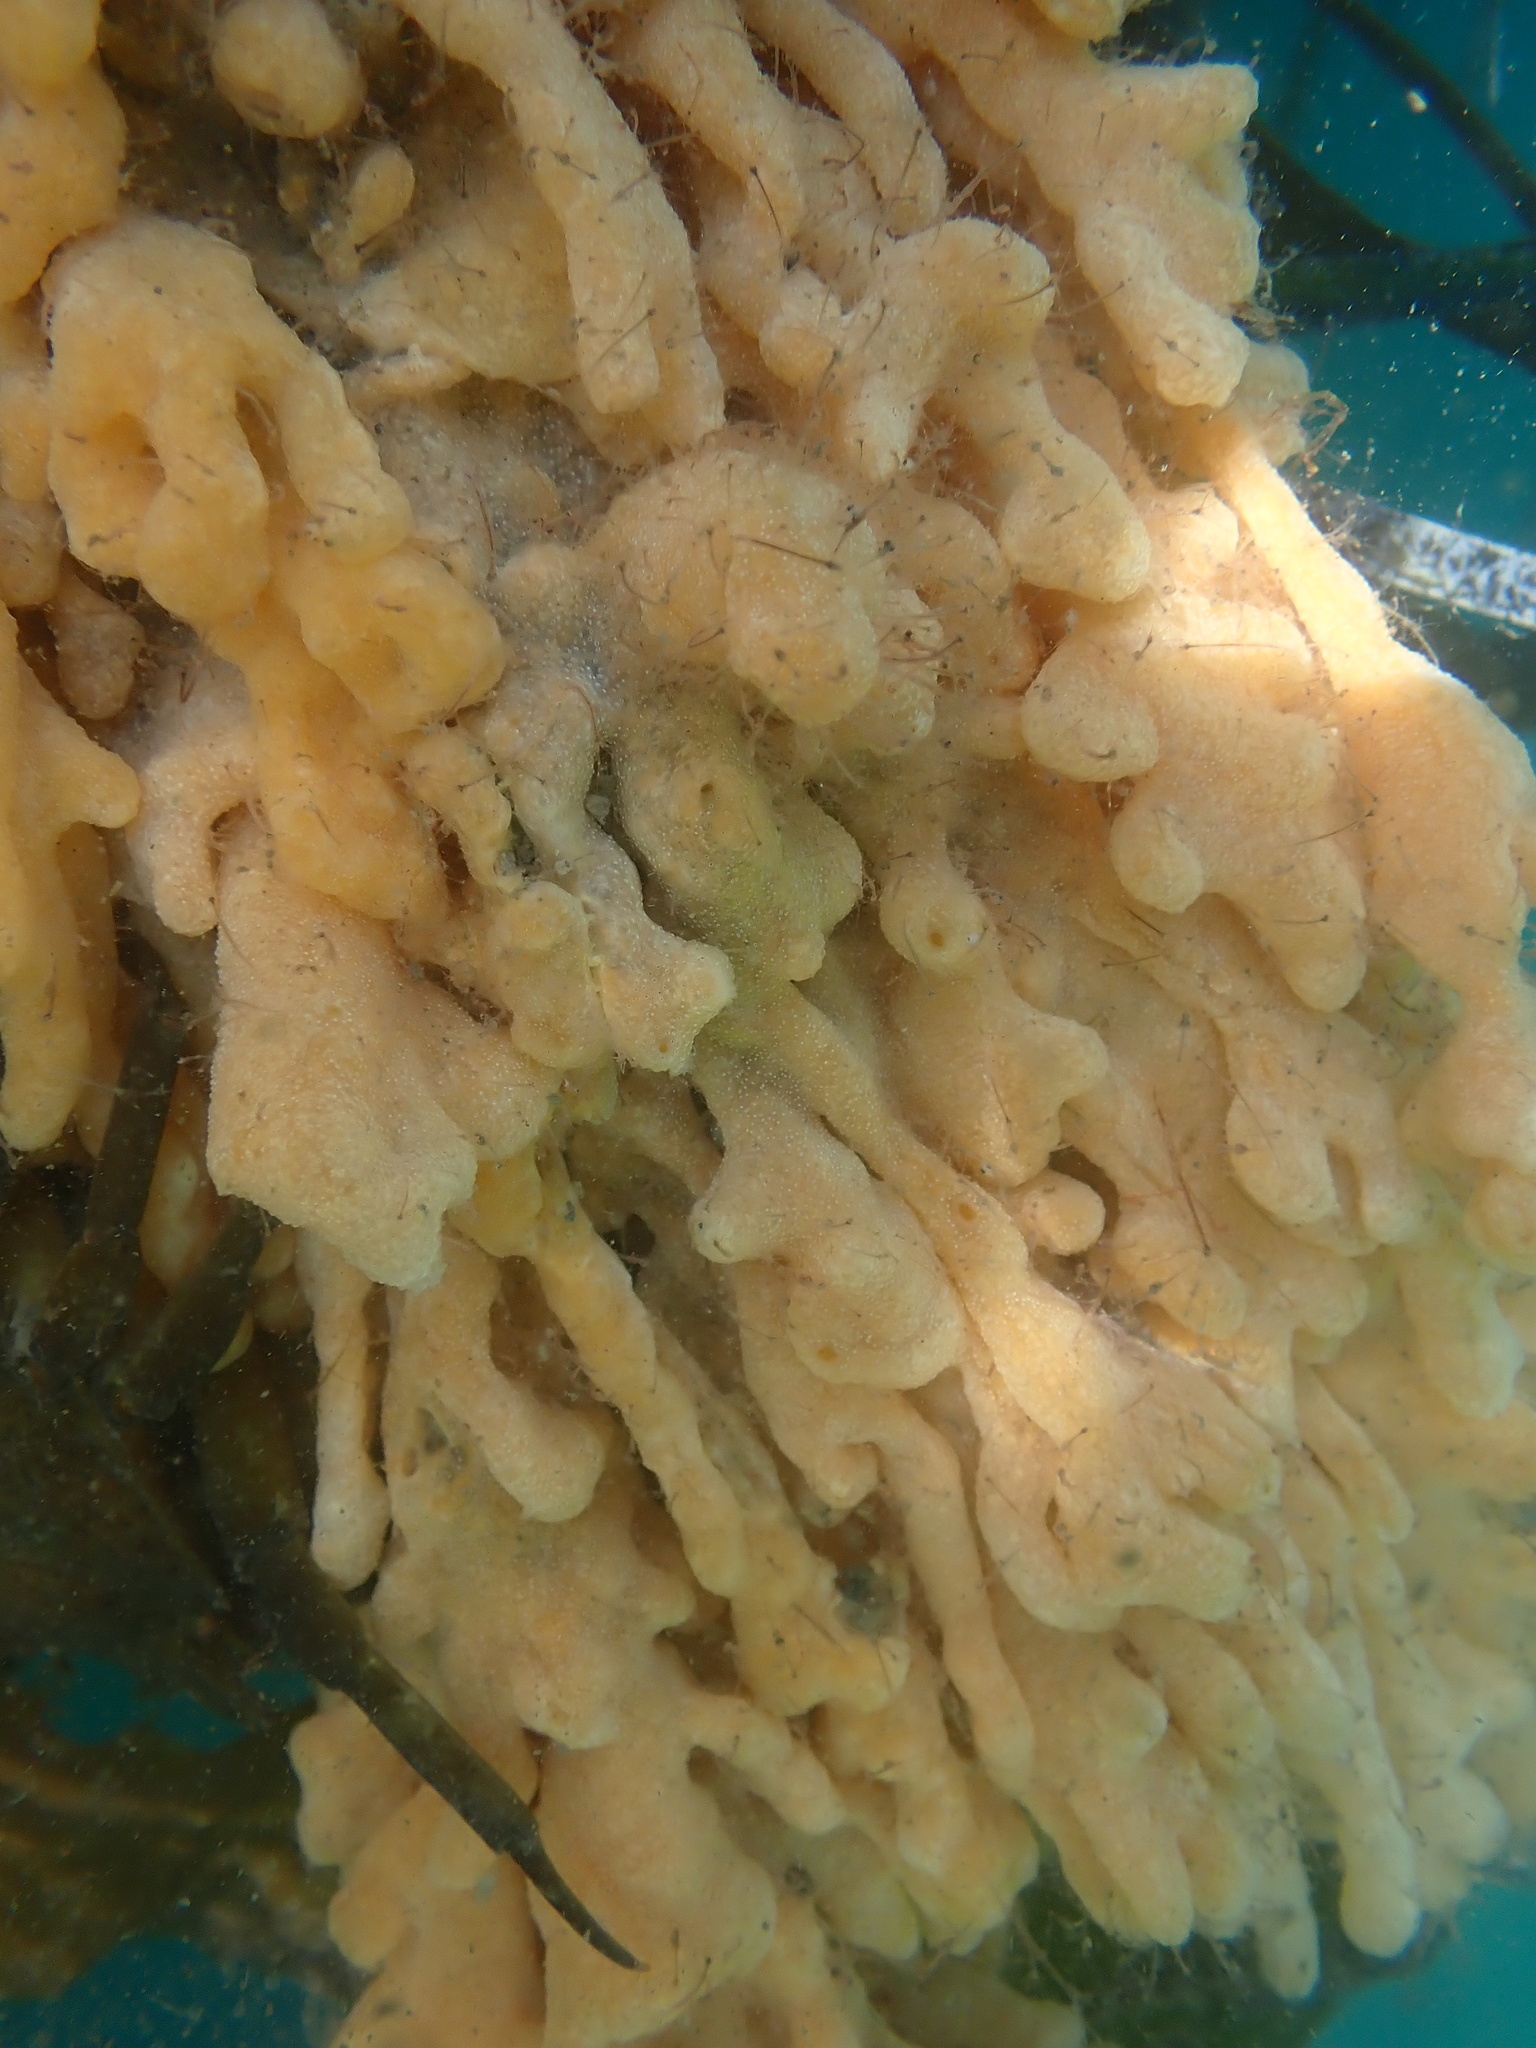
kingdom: Animalia
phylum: Chordata
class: Ascidiacea
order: Aplousobranchia
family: Didemnidae
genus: Didemnum
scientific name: Didemnum vexillum
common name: Compound sea squirt
